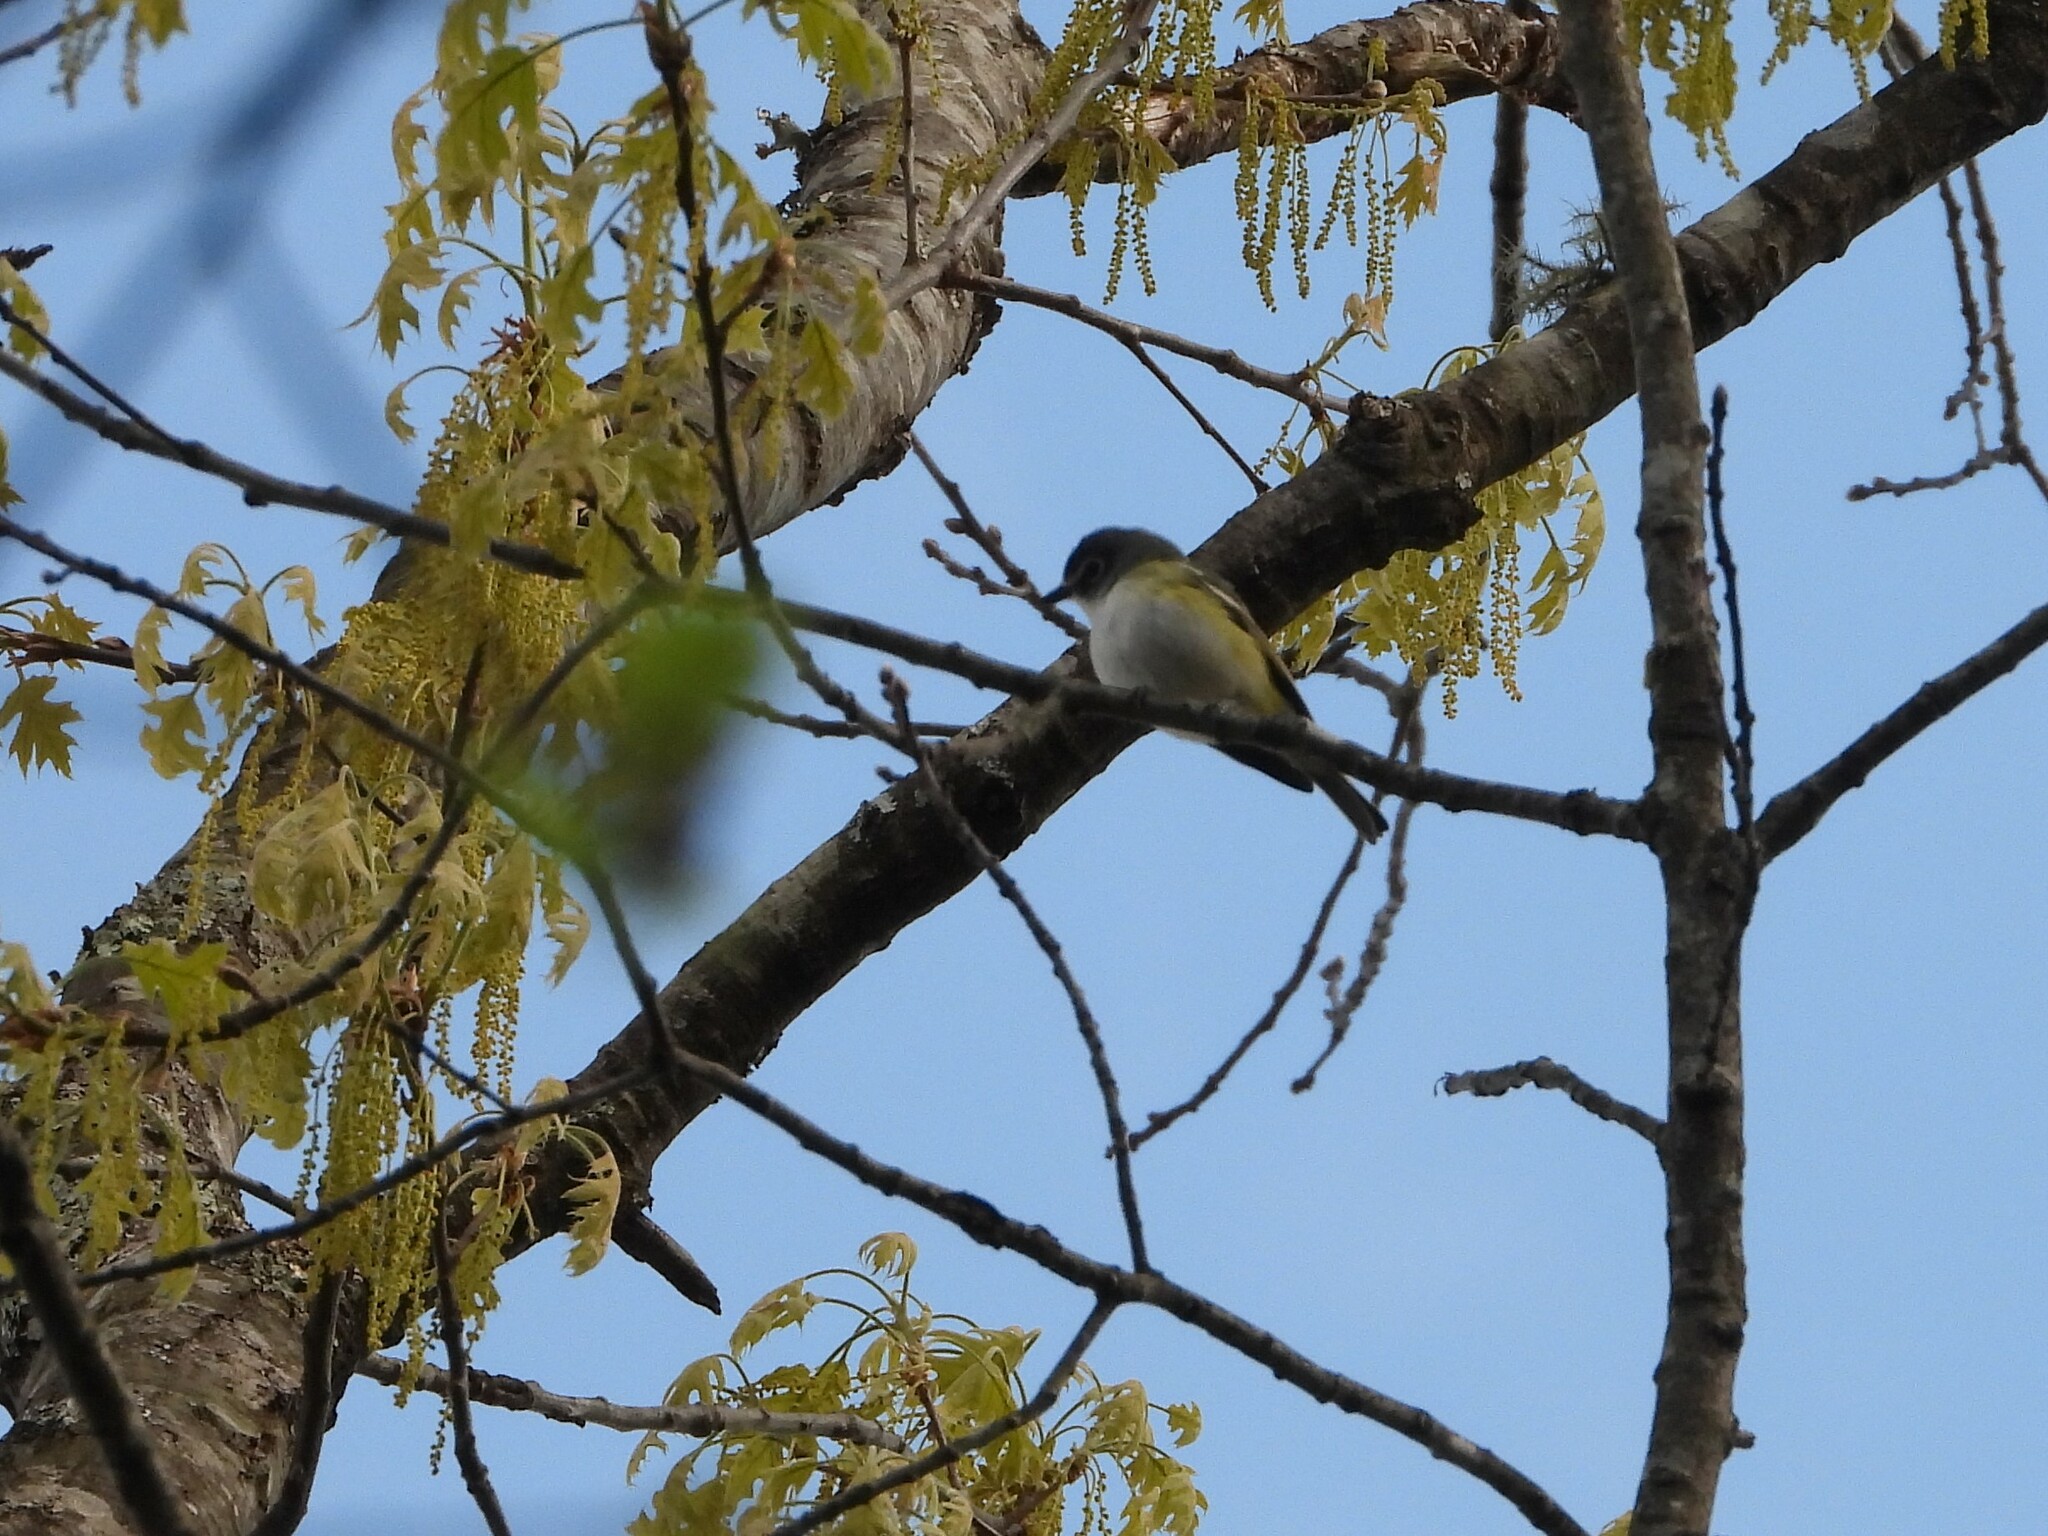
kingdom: Animalia
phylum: Chordata
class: Aves
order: Passeriformes
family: Vireonidae
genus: Vireo
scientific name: Vireo solitarius
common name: Blue-headed vireo
